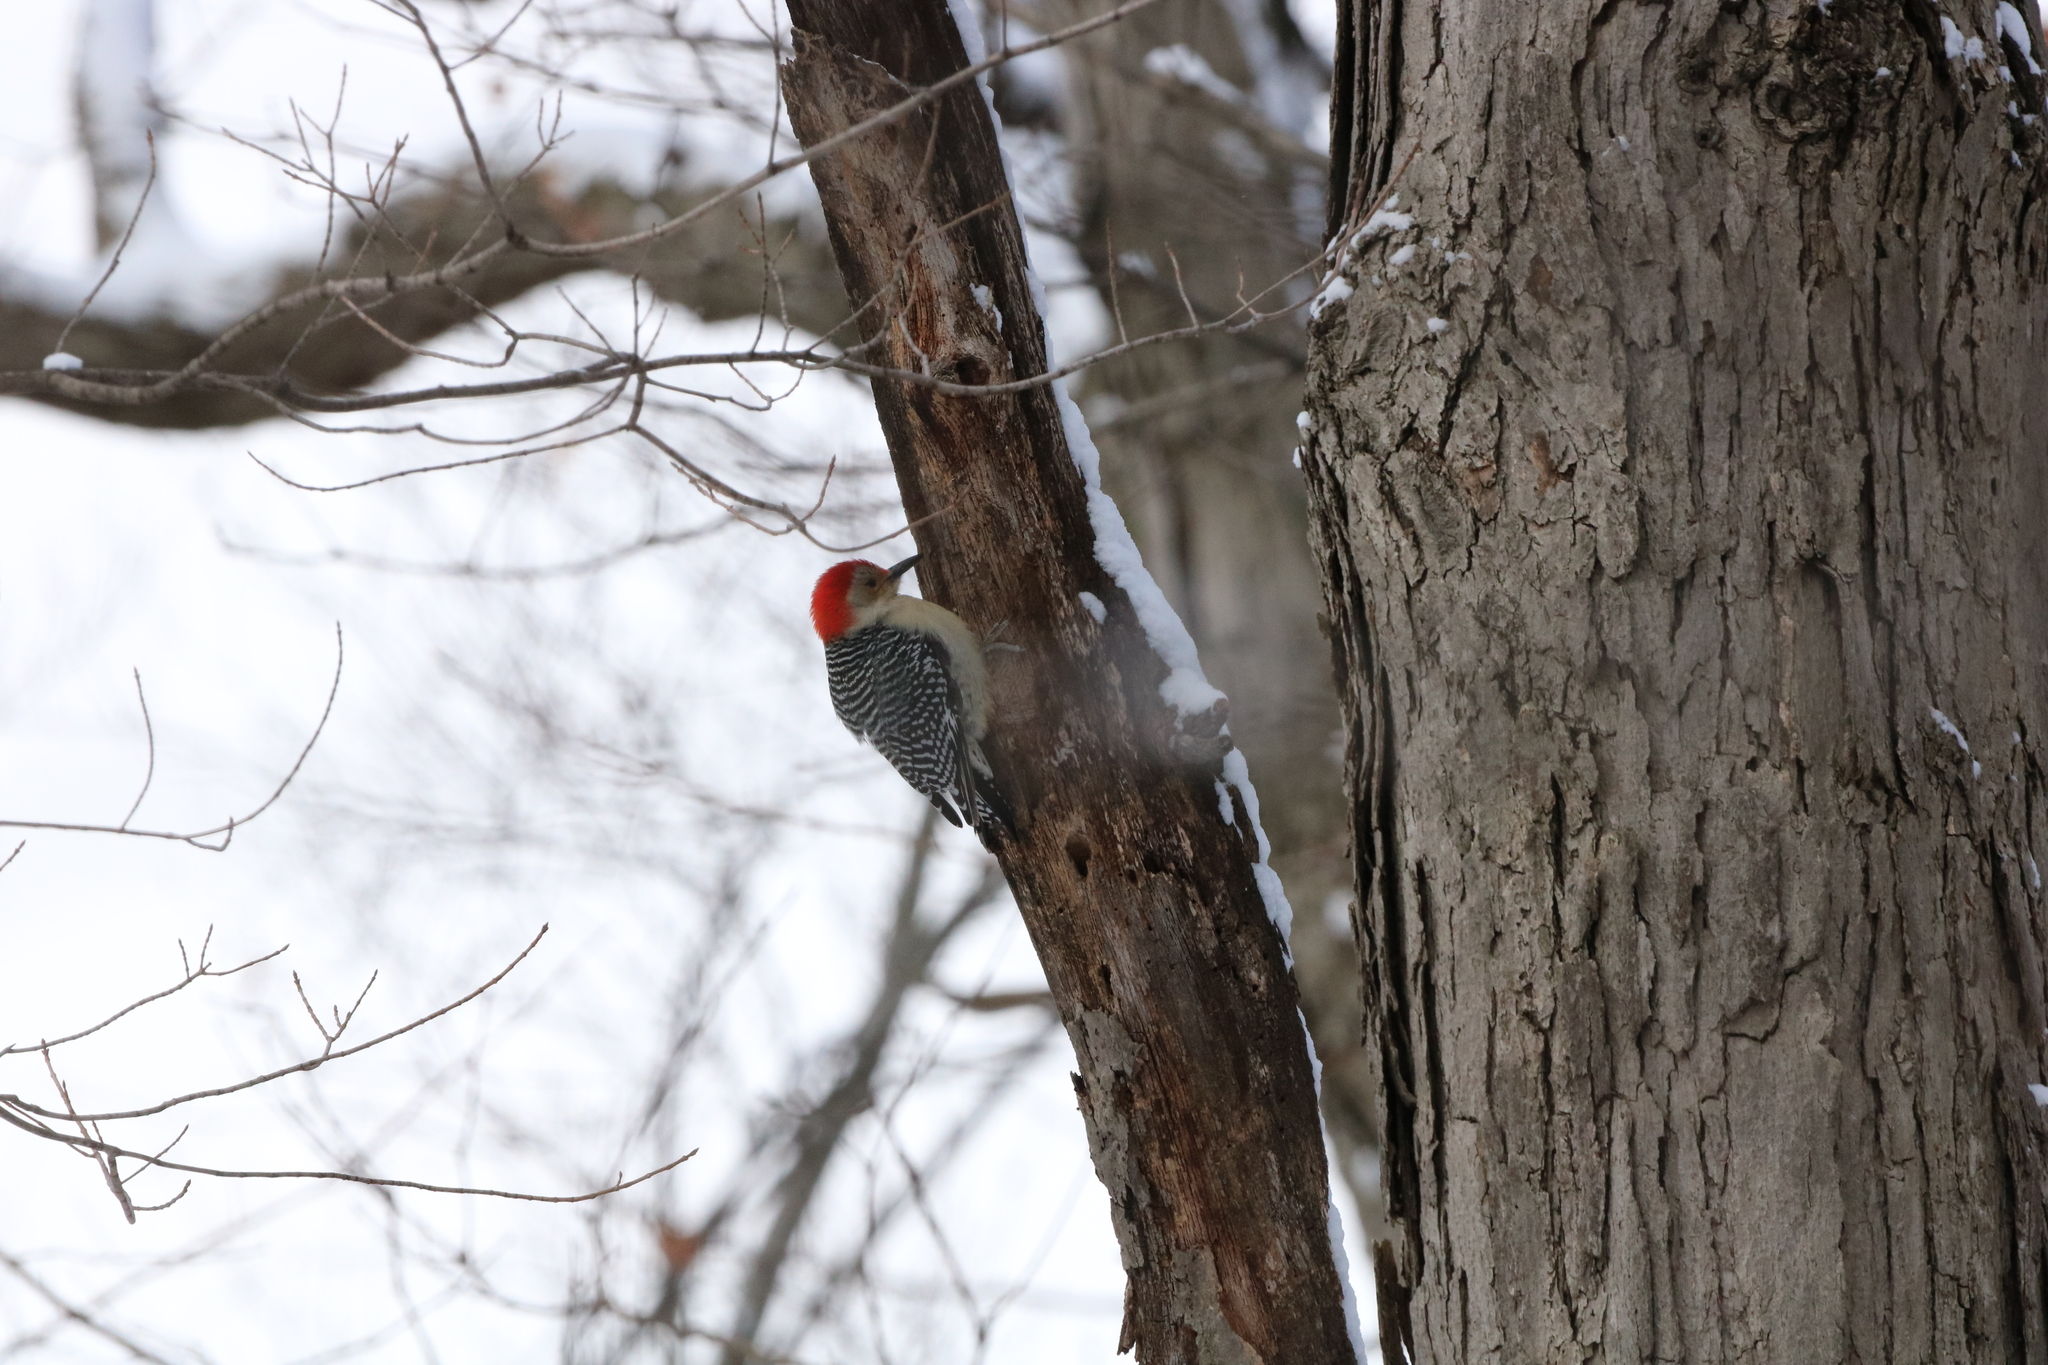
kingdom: Animalia
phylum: Chordata
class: Aves
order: Piciformes
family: Picidae
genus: Melanerpes
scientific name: Melanerpes carolinus
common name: Red-bellied woodpecker
